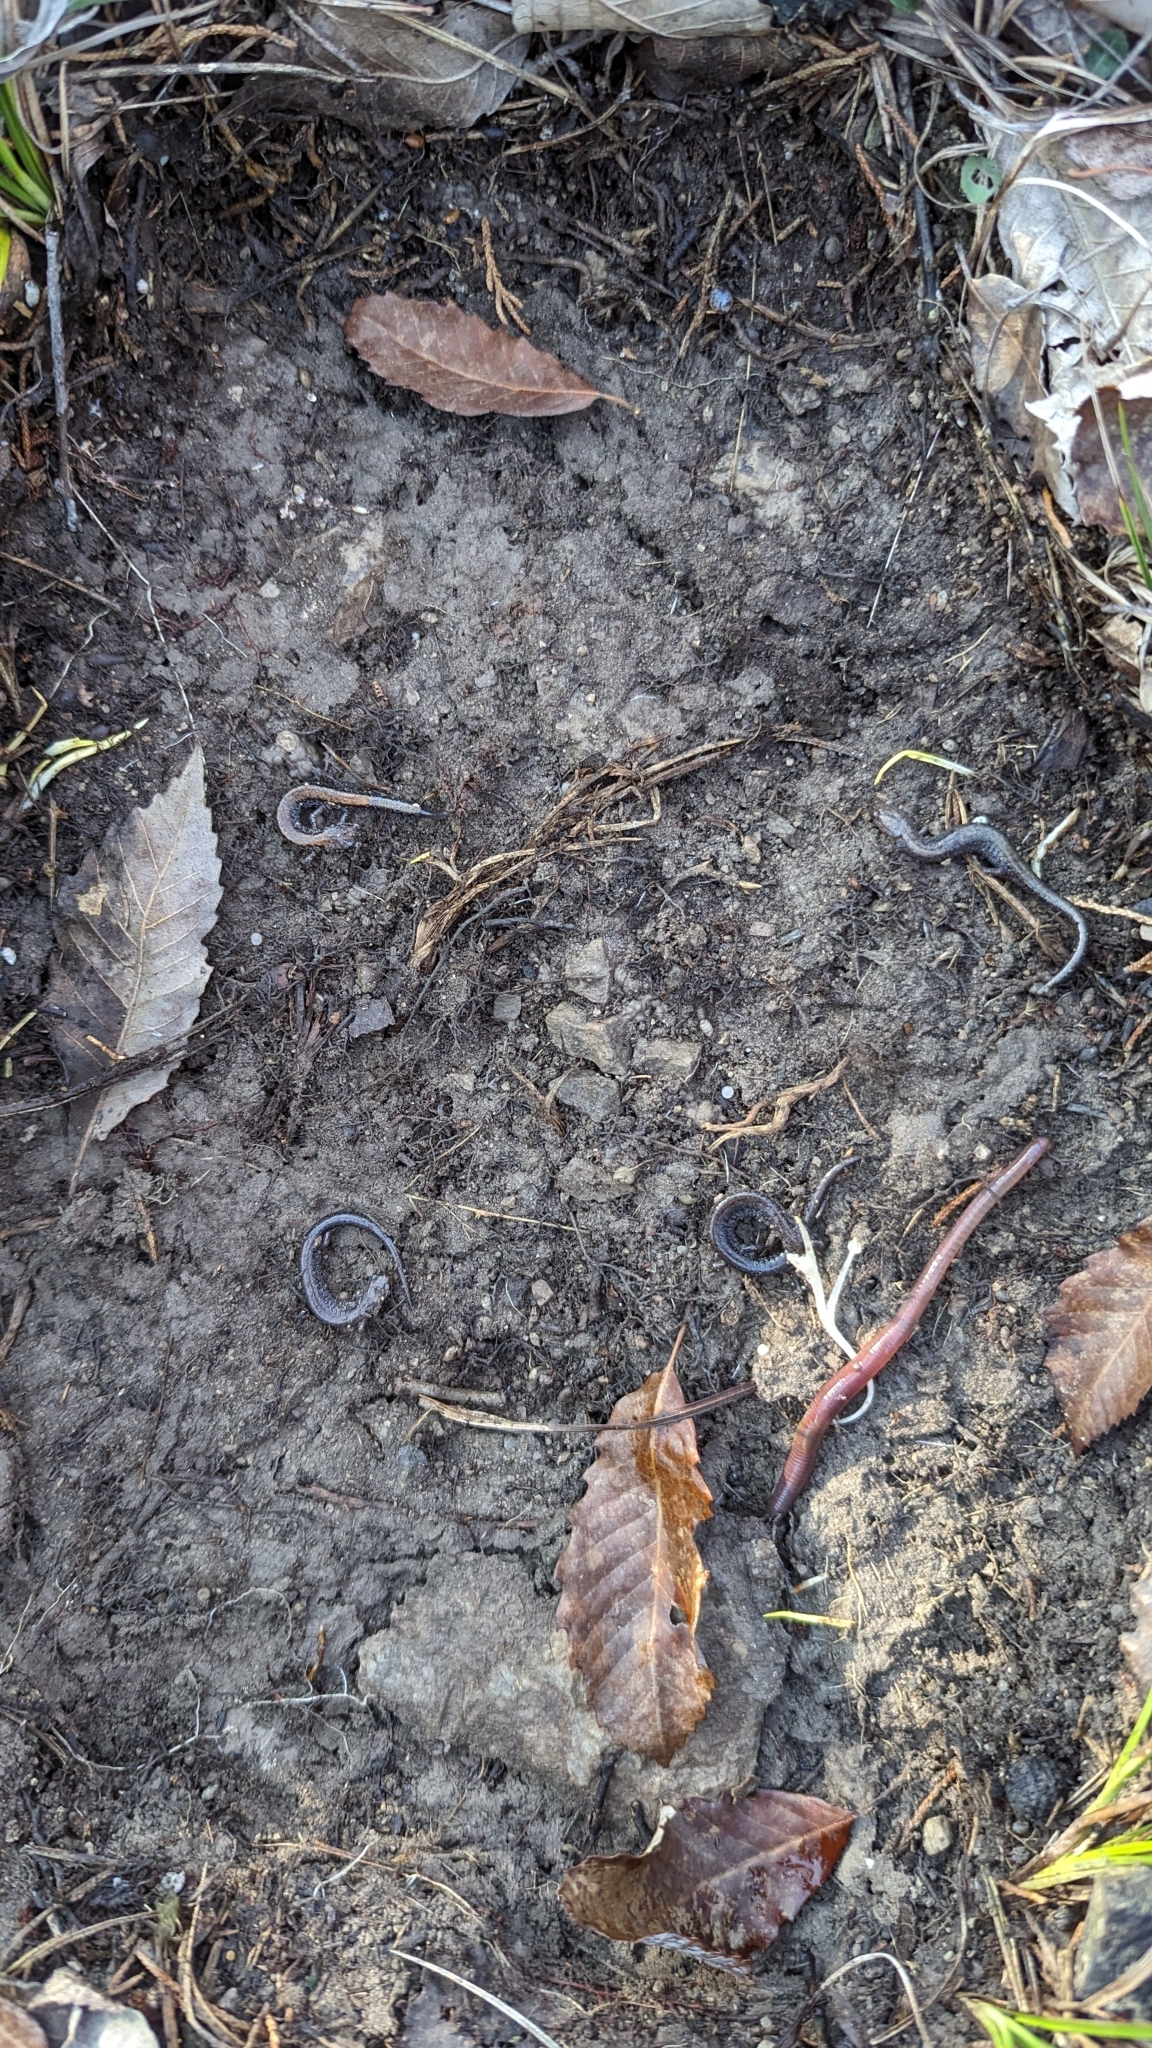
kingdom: Animalia
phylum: Chordata
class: Amphibia
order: Caudata
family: Plethodontidae
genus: Plethodon
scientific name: Plethodon cinereus
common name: Redback salamander
